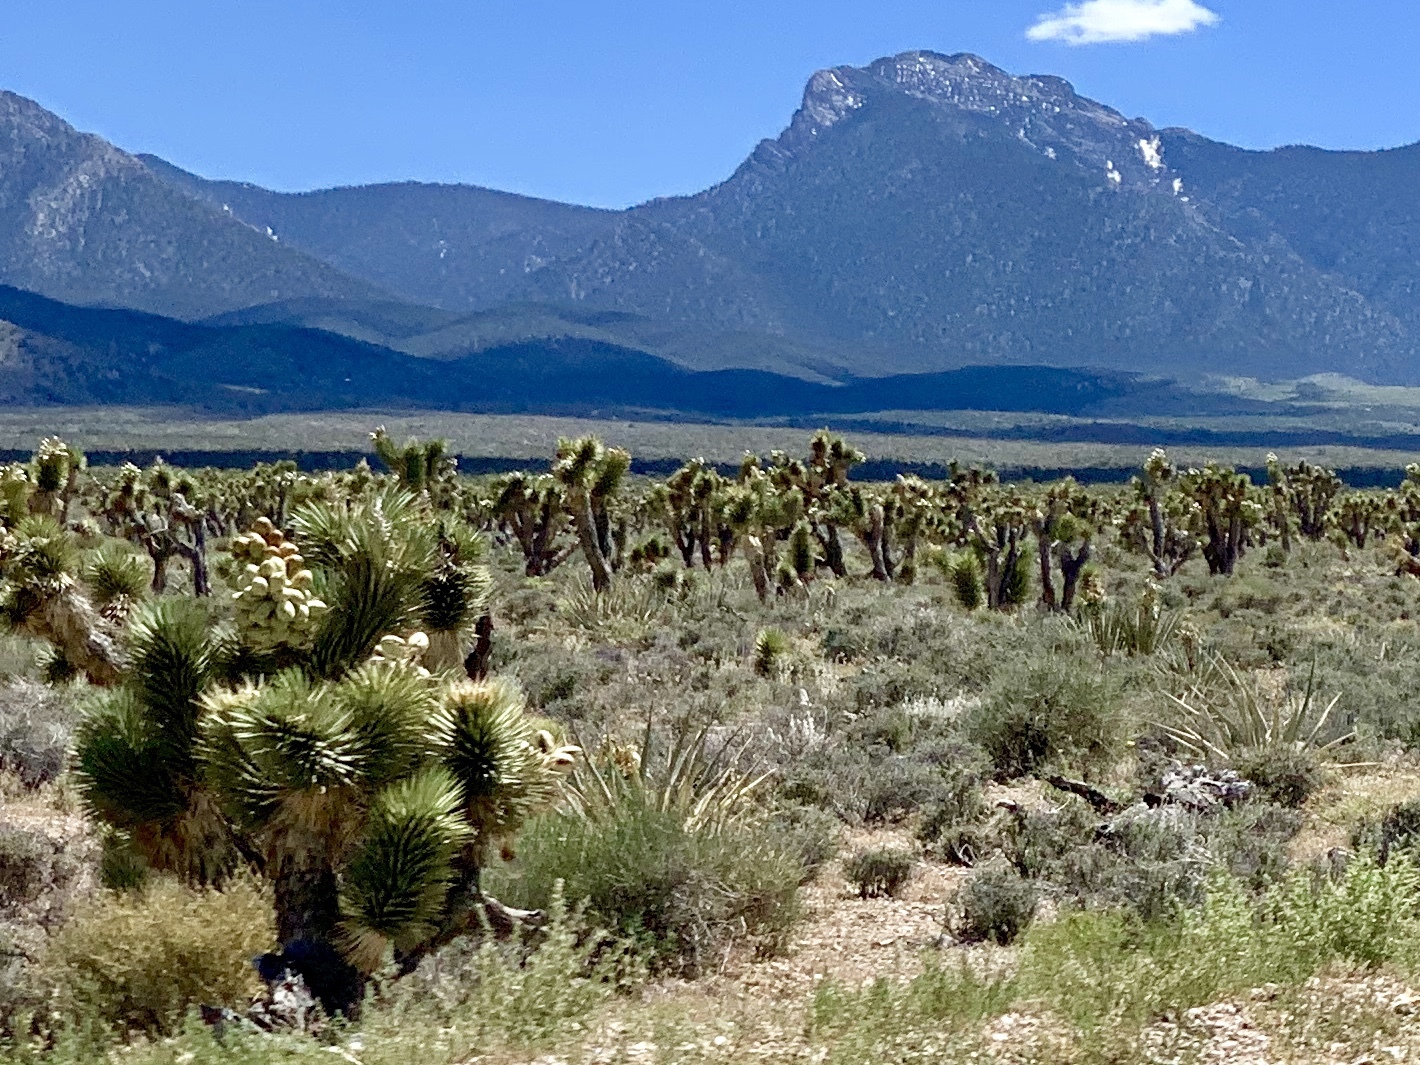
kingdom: Plantae
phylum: Tracheophyta
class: Liliopsida
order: Asparagales
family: Asparagaceae
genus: Yucca
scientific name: Yucca brevifolia
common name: Joshua tree
